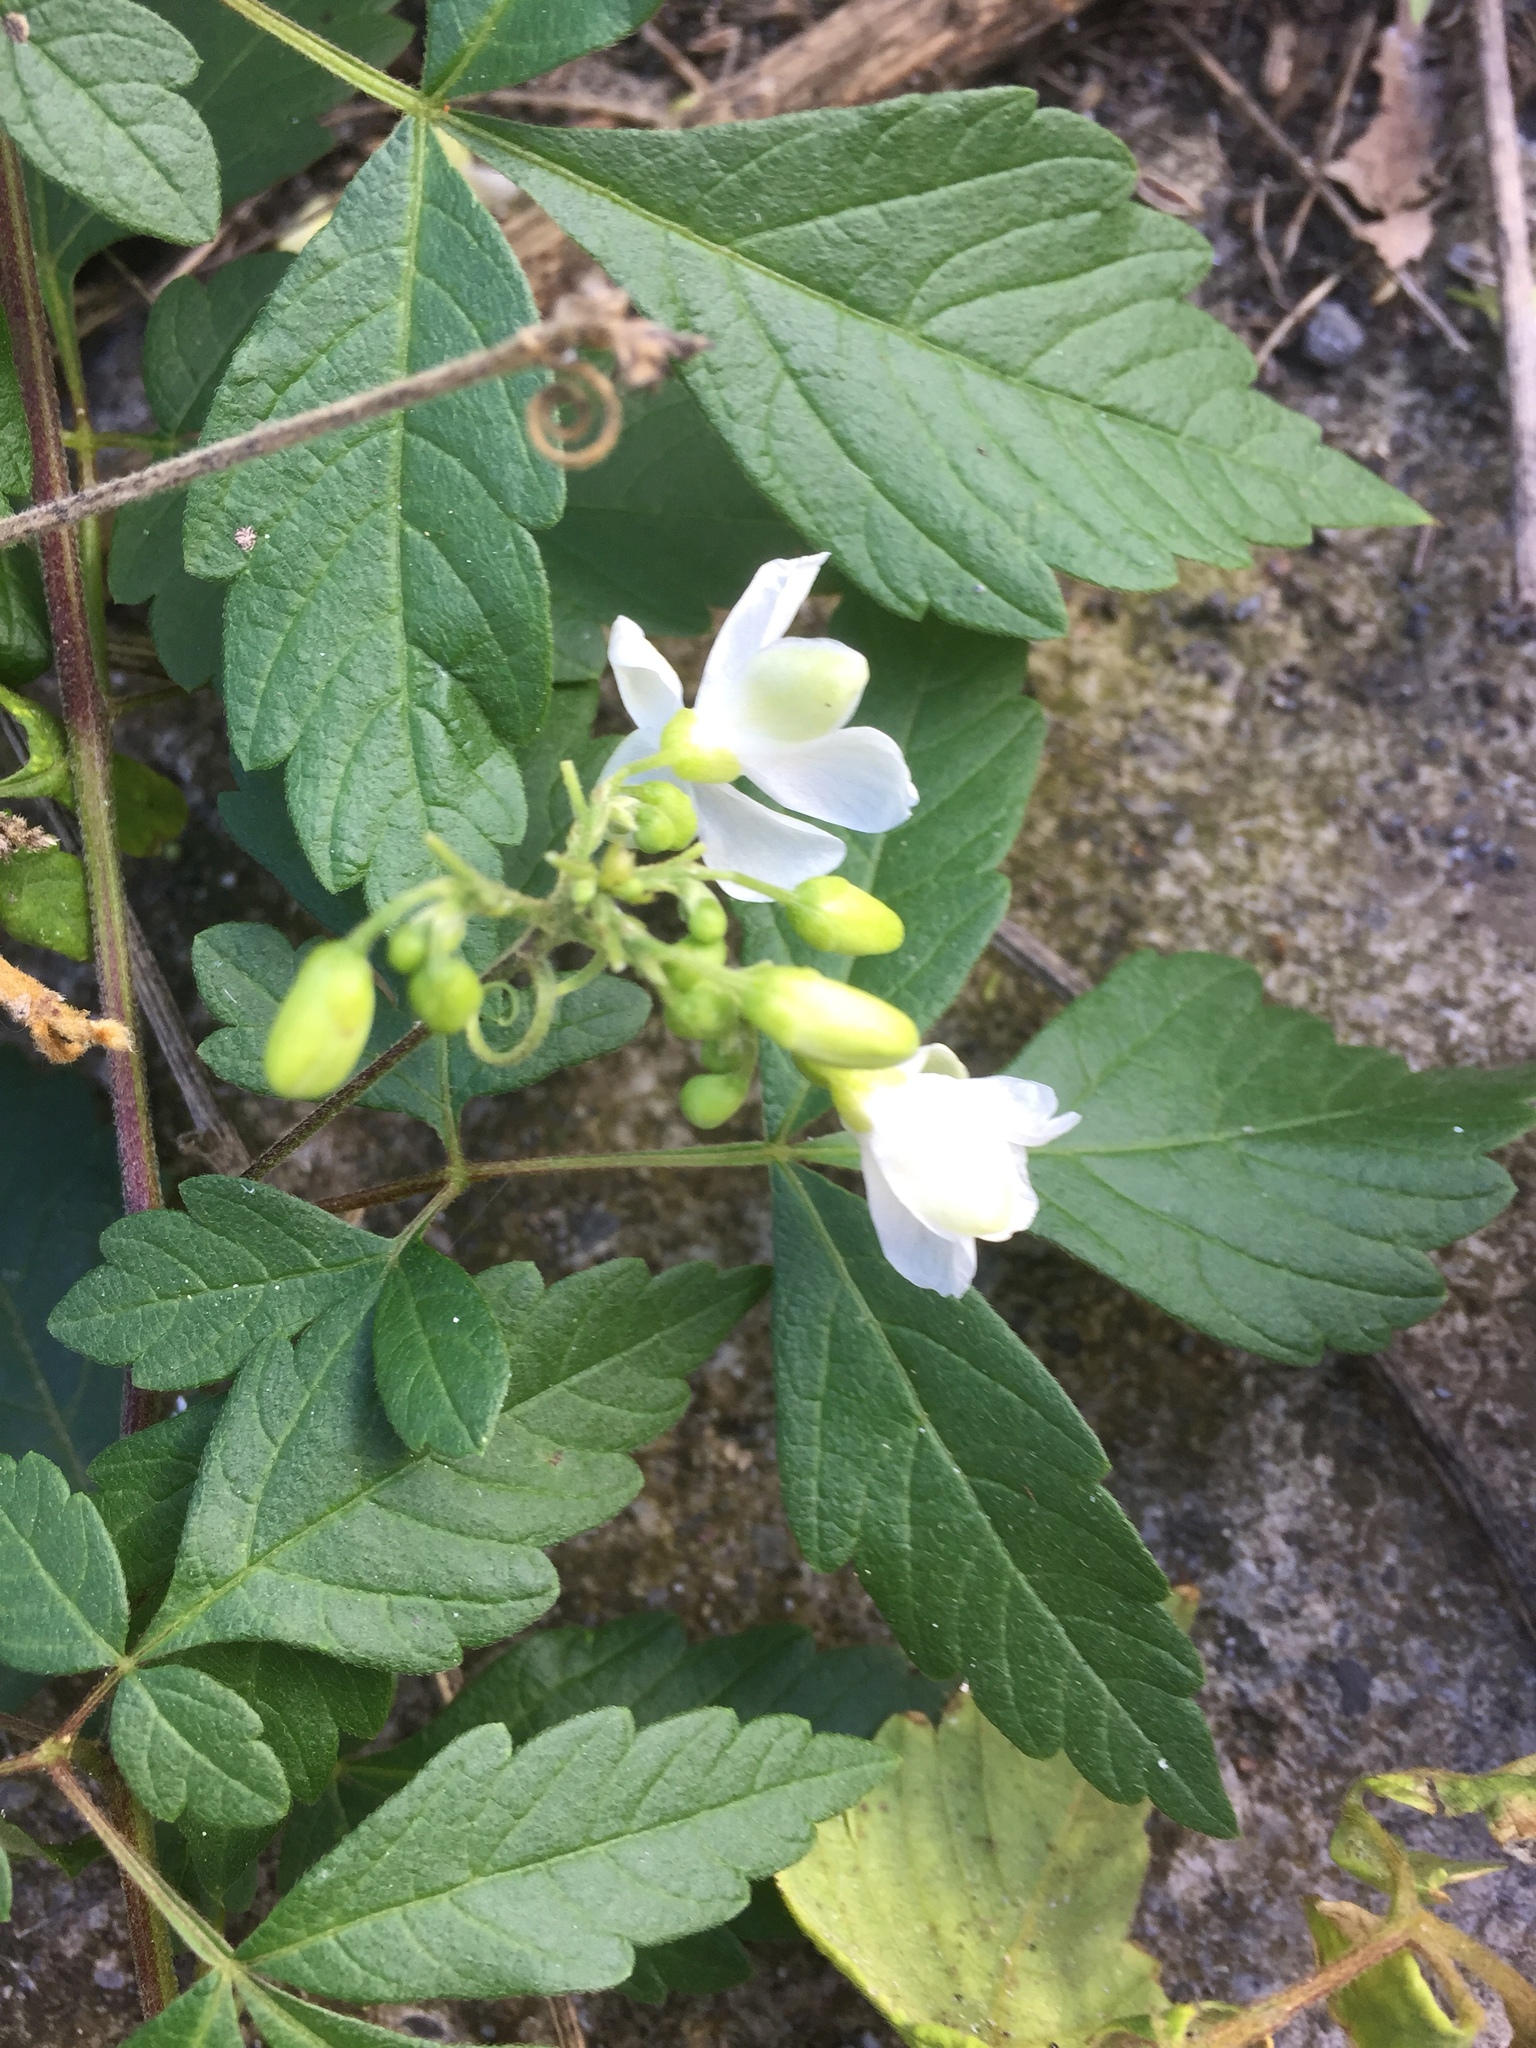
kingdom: Plantae
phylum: Tracheophyta
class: Magnoliopsida
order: Sapindales
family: Sapindaceae
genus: Cardiospermum
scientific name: Cardiospermum grandiflorum
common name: Balloon vine
